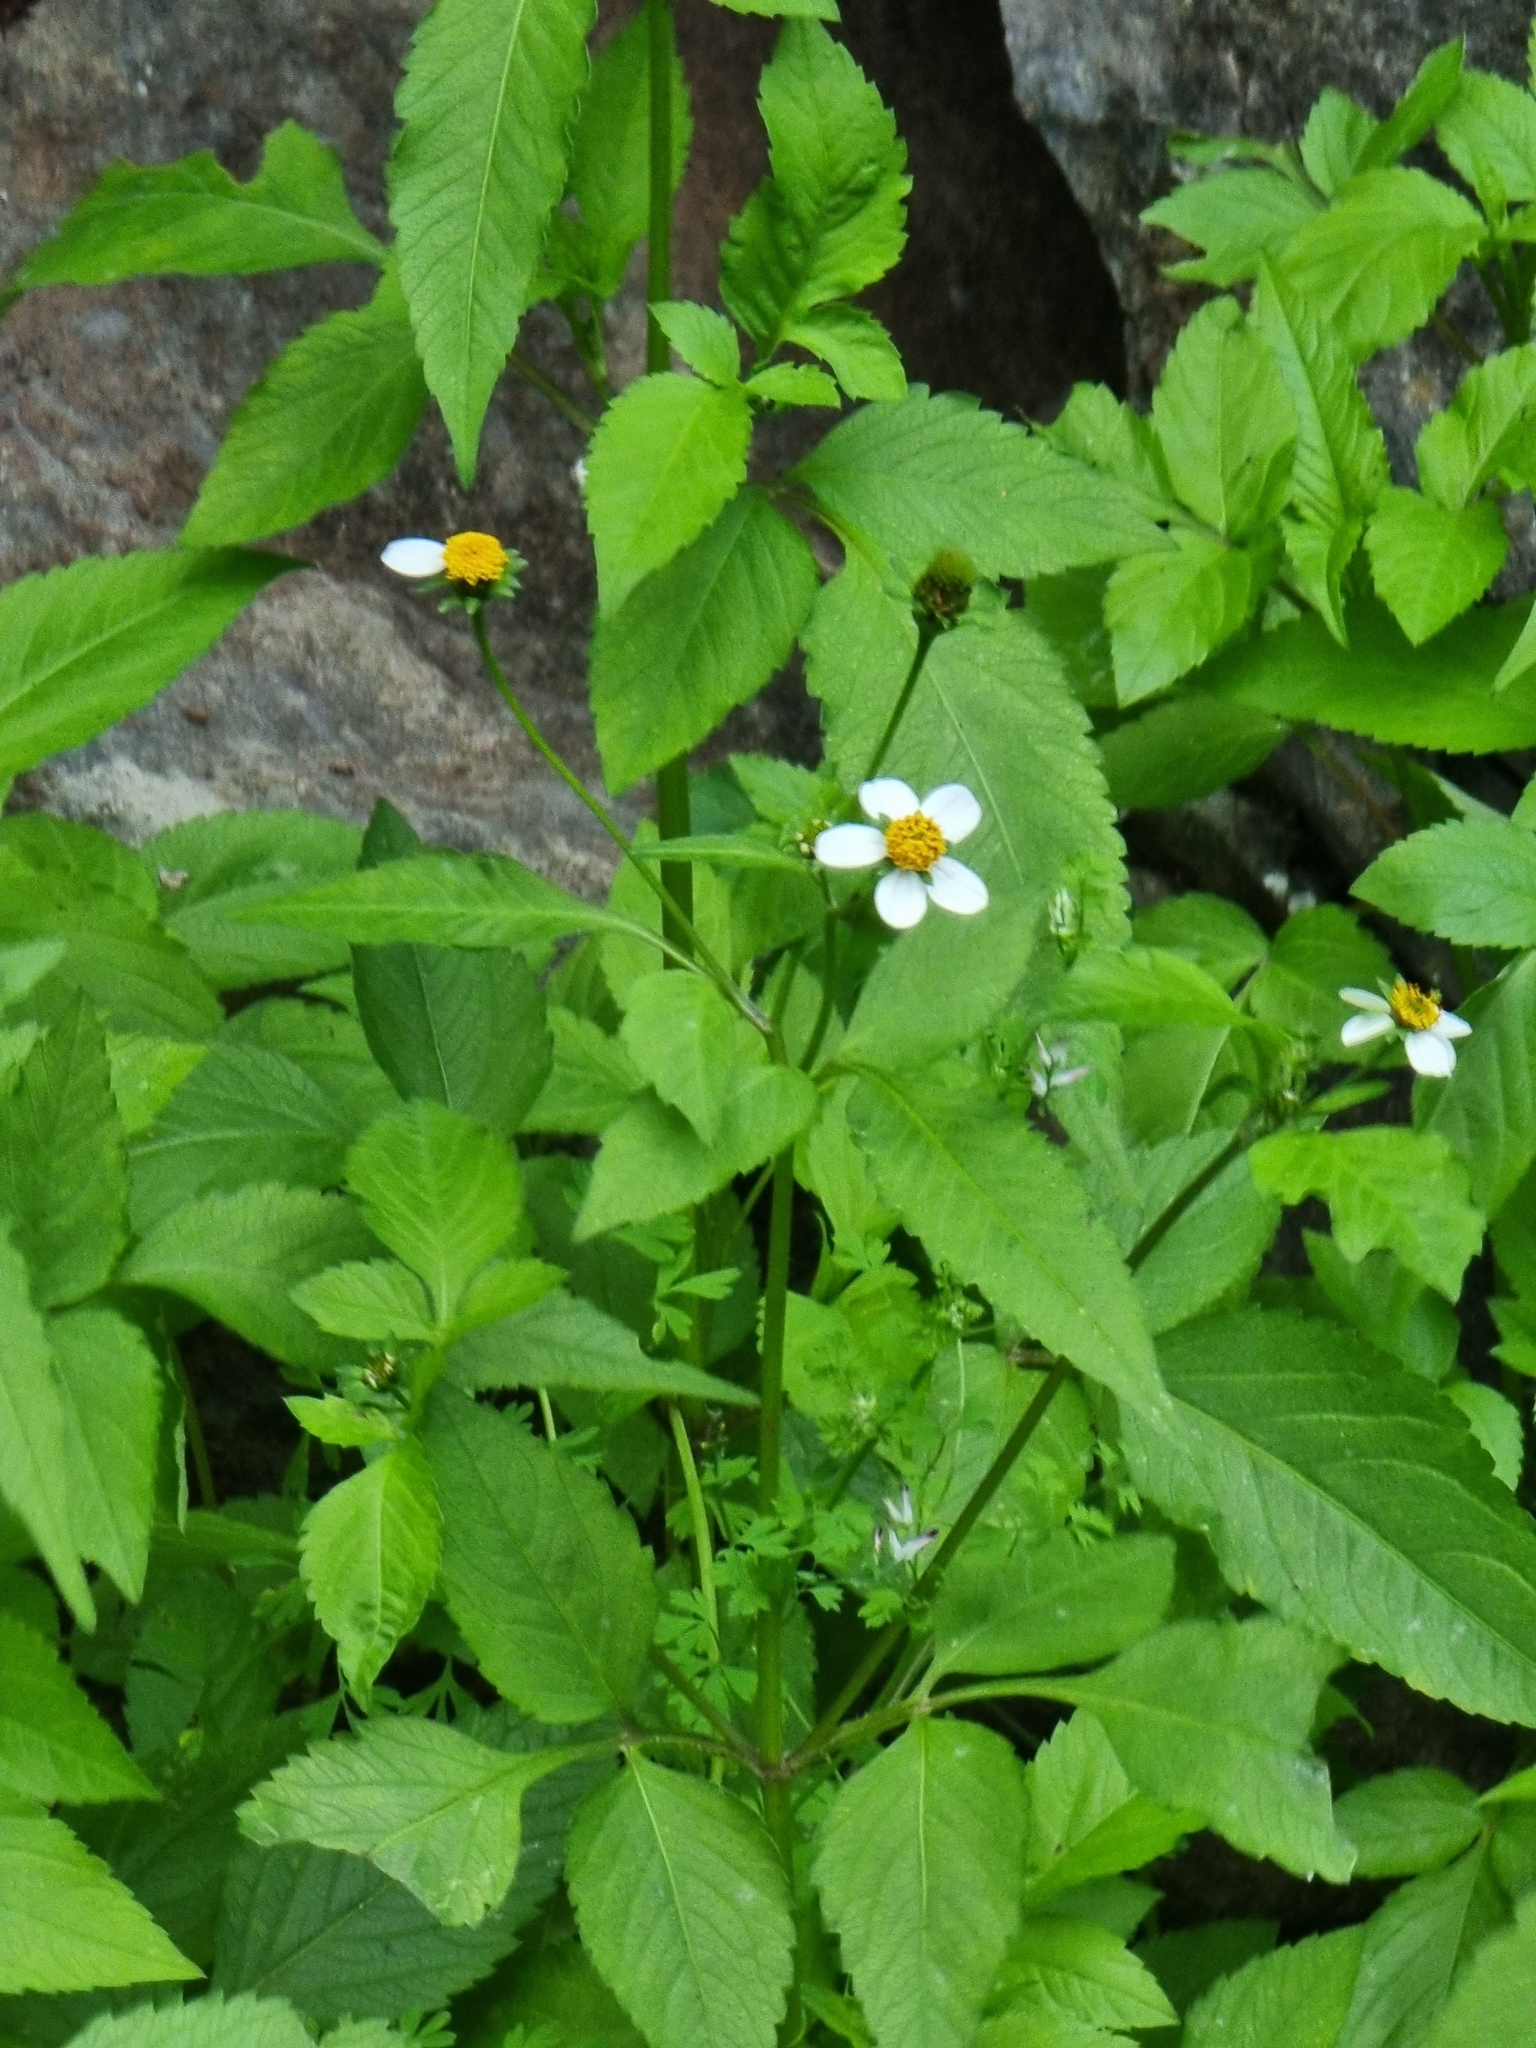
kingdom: Plantae
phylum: Tracheophyta
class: Magnoliopsida
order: Asterales
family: Asteraceae
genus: Bidens
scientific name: Bidens pilosa
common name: Black-jack
